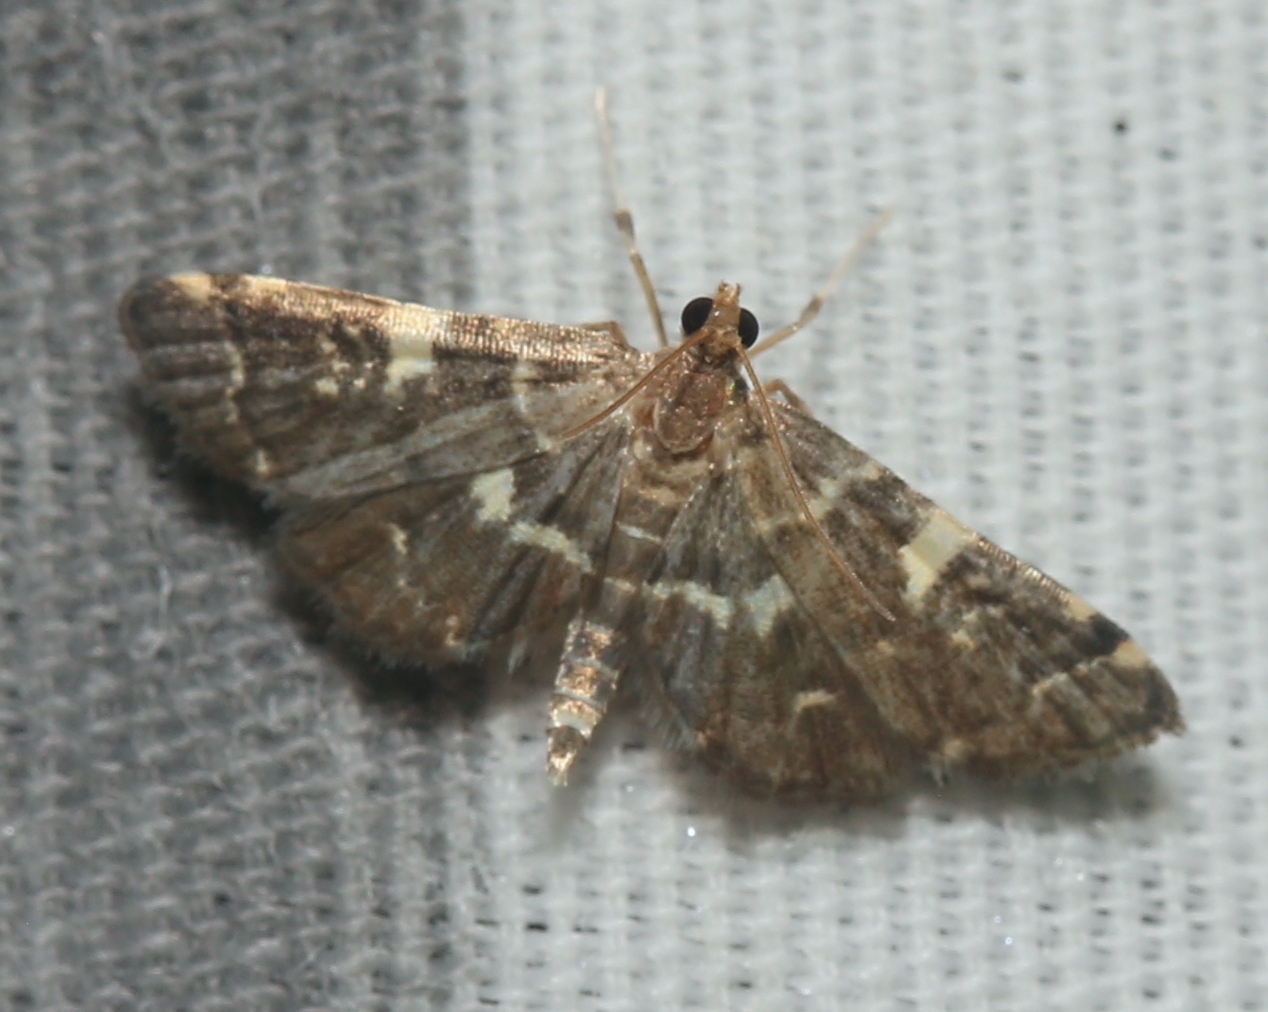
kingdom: Animalia
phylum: Arthropoda
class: Insecta
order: Lepidoptera
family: Crambidae
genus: Anageshna
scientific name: Anageshna primordialis
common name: Yellow-spotted webworm moth
